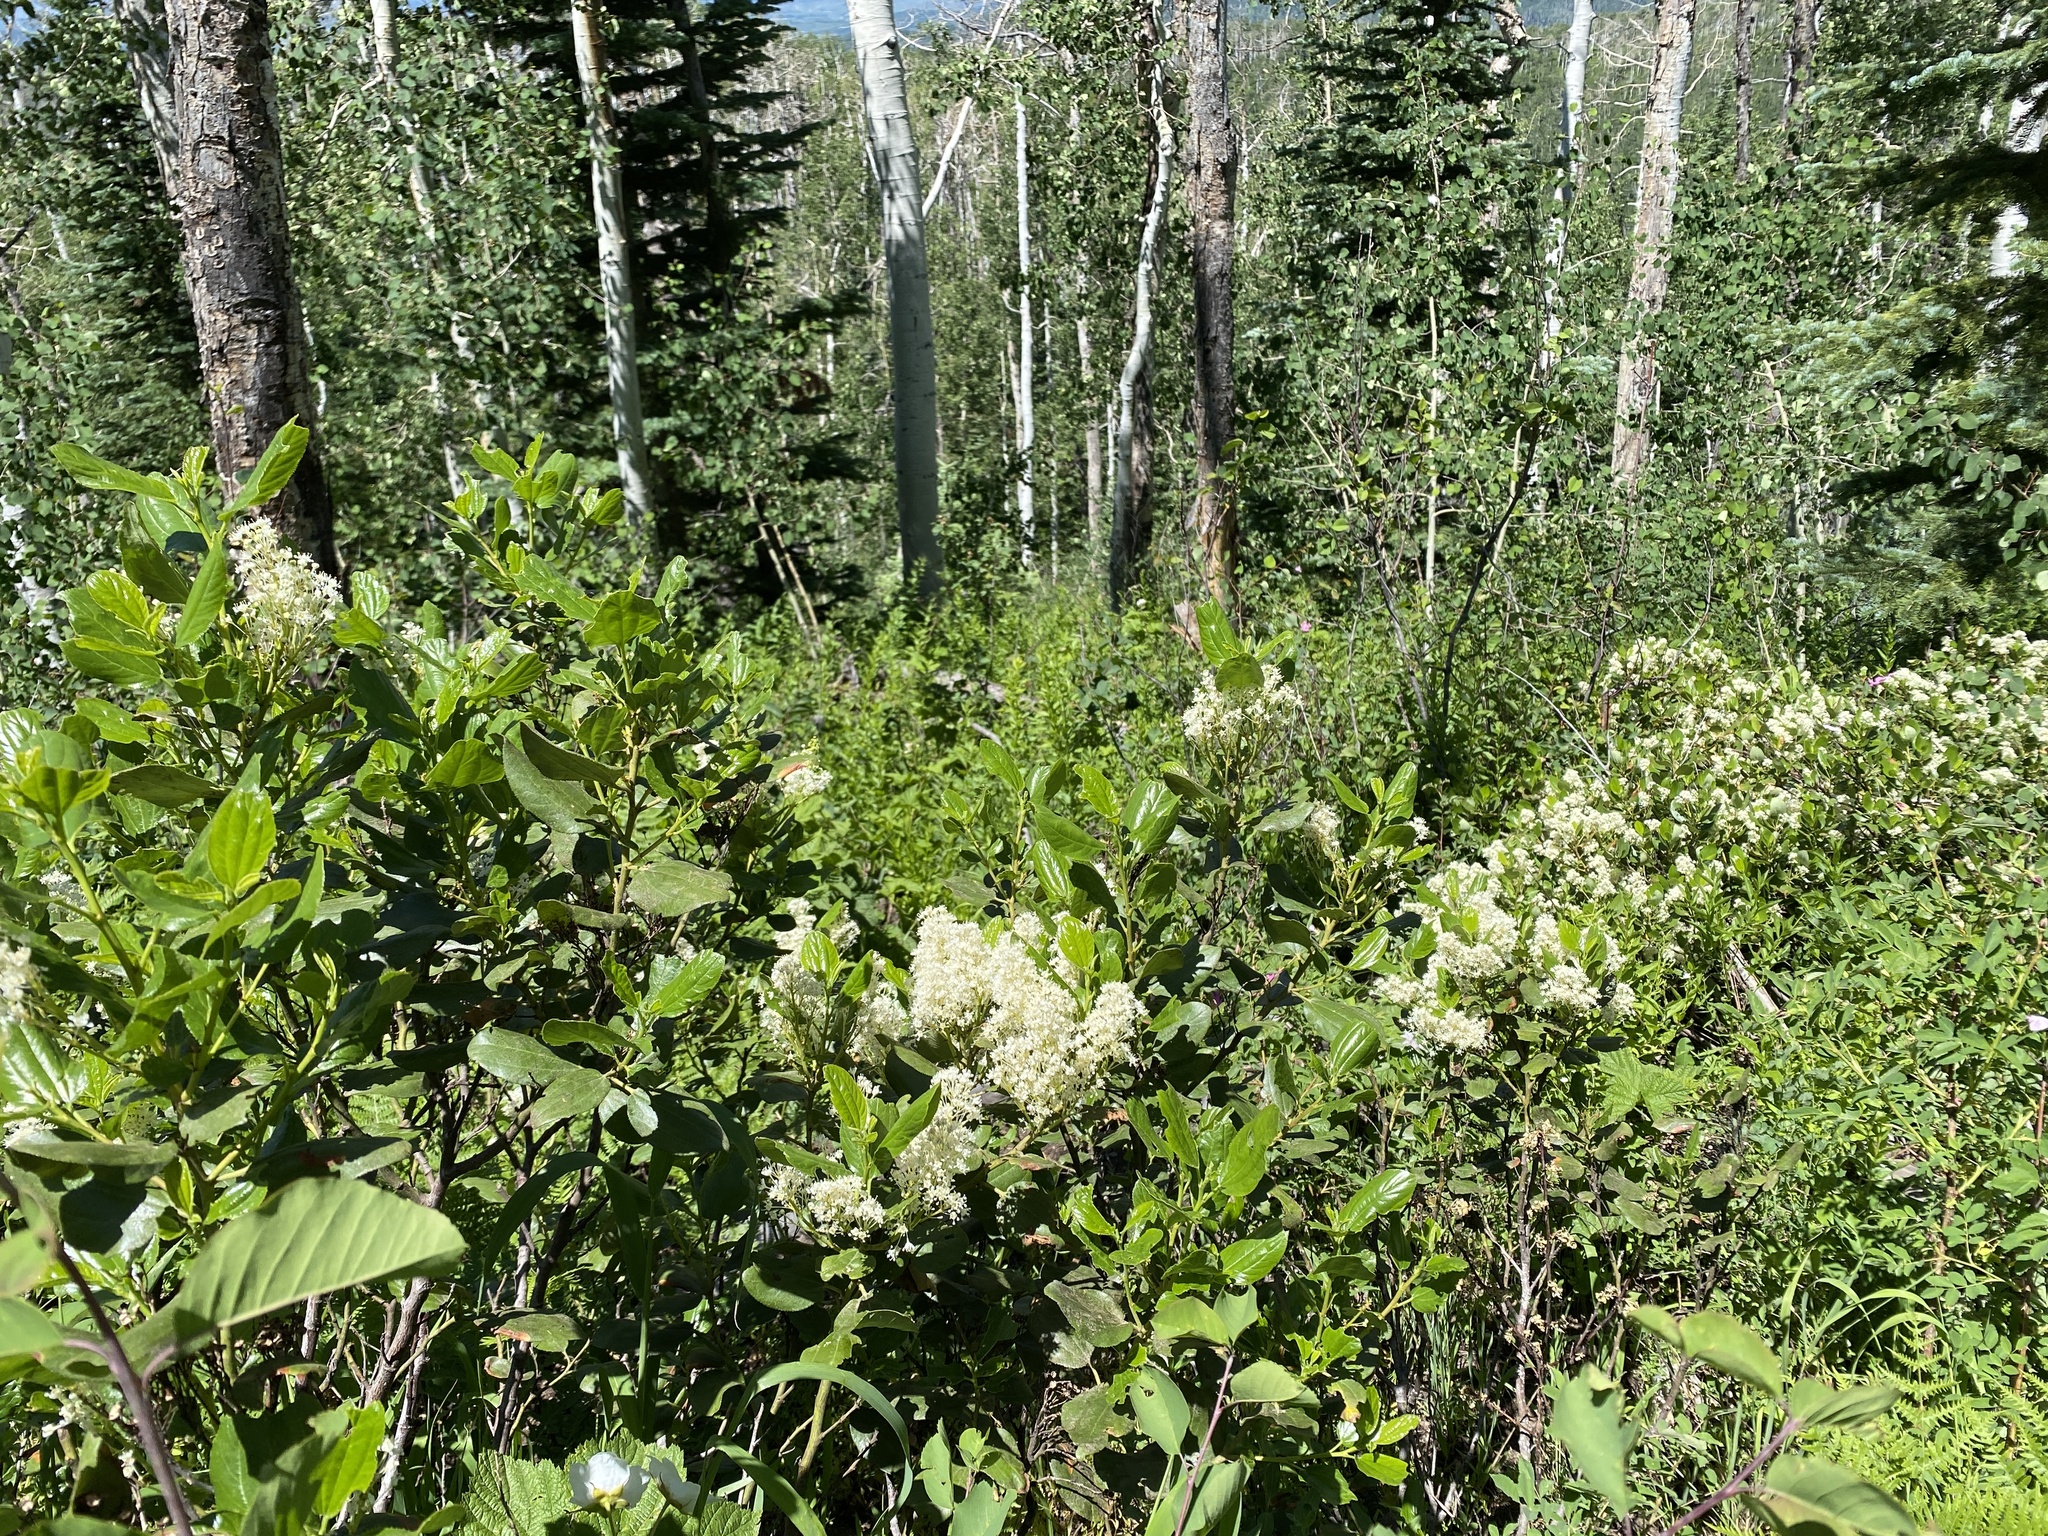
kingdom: Plantae
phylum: Tracheophyta
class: Magnoliopsida
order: Rosales
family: Rhamnaceae
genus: Ceanothus
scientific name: Ceanothus velutinus
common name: Snowbrush
